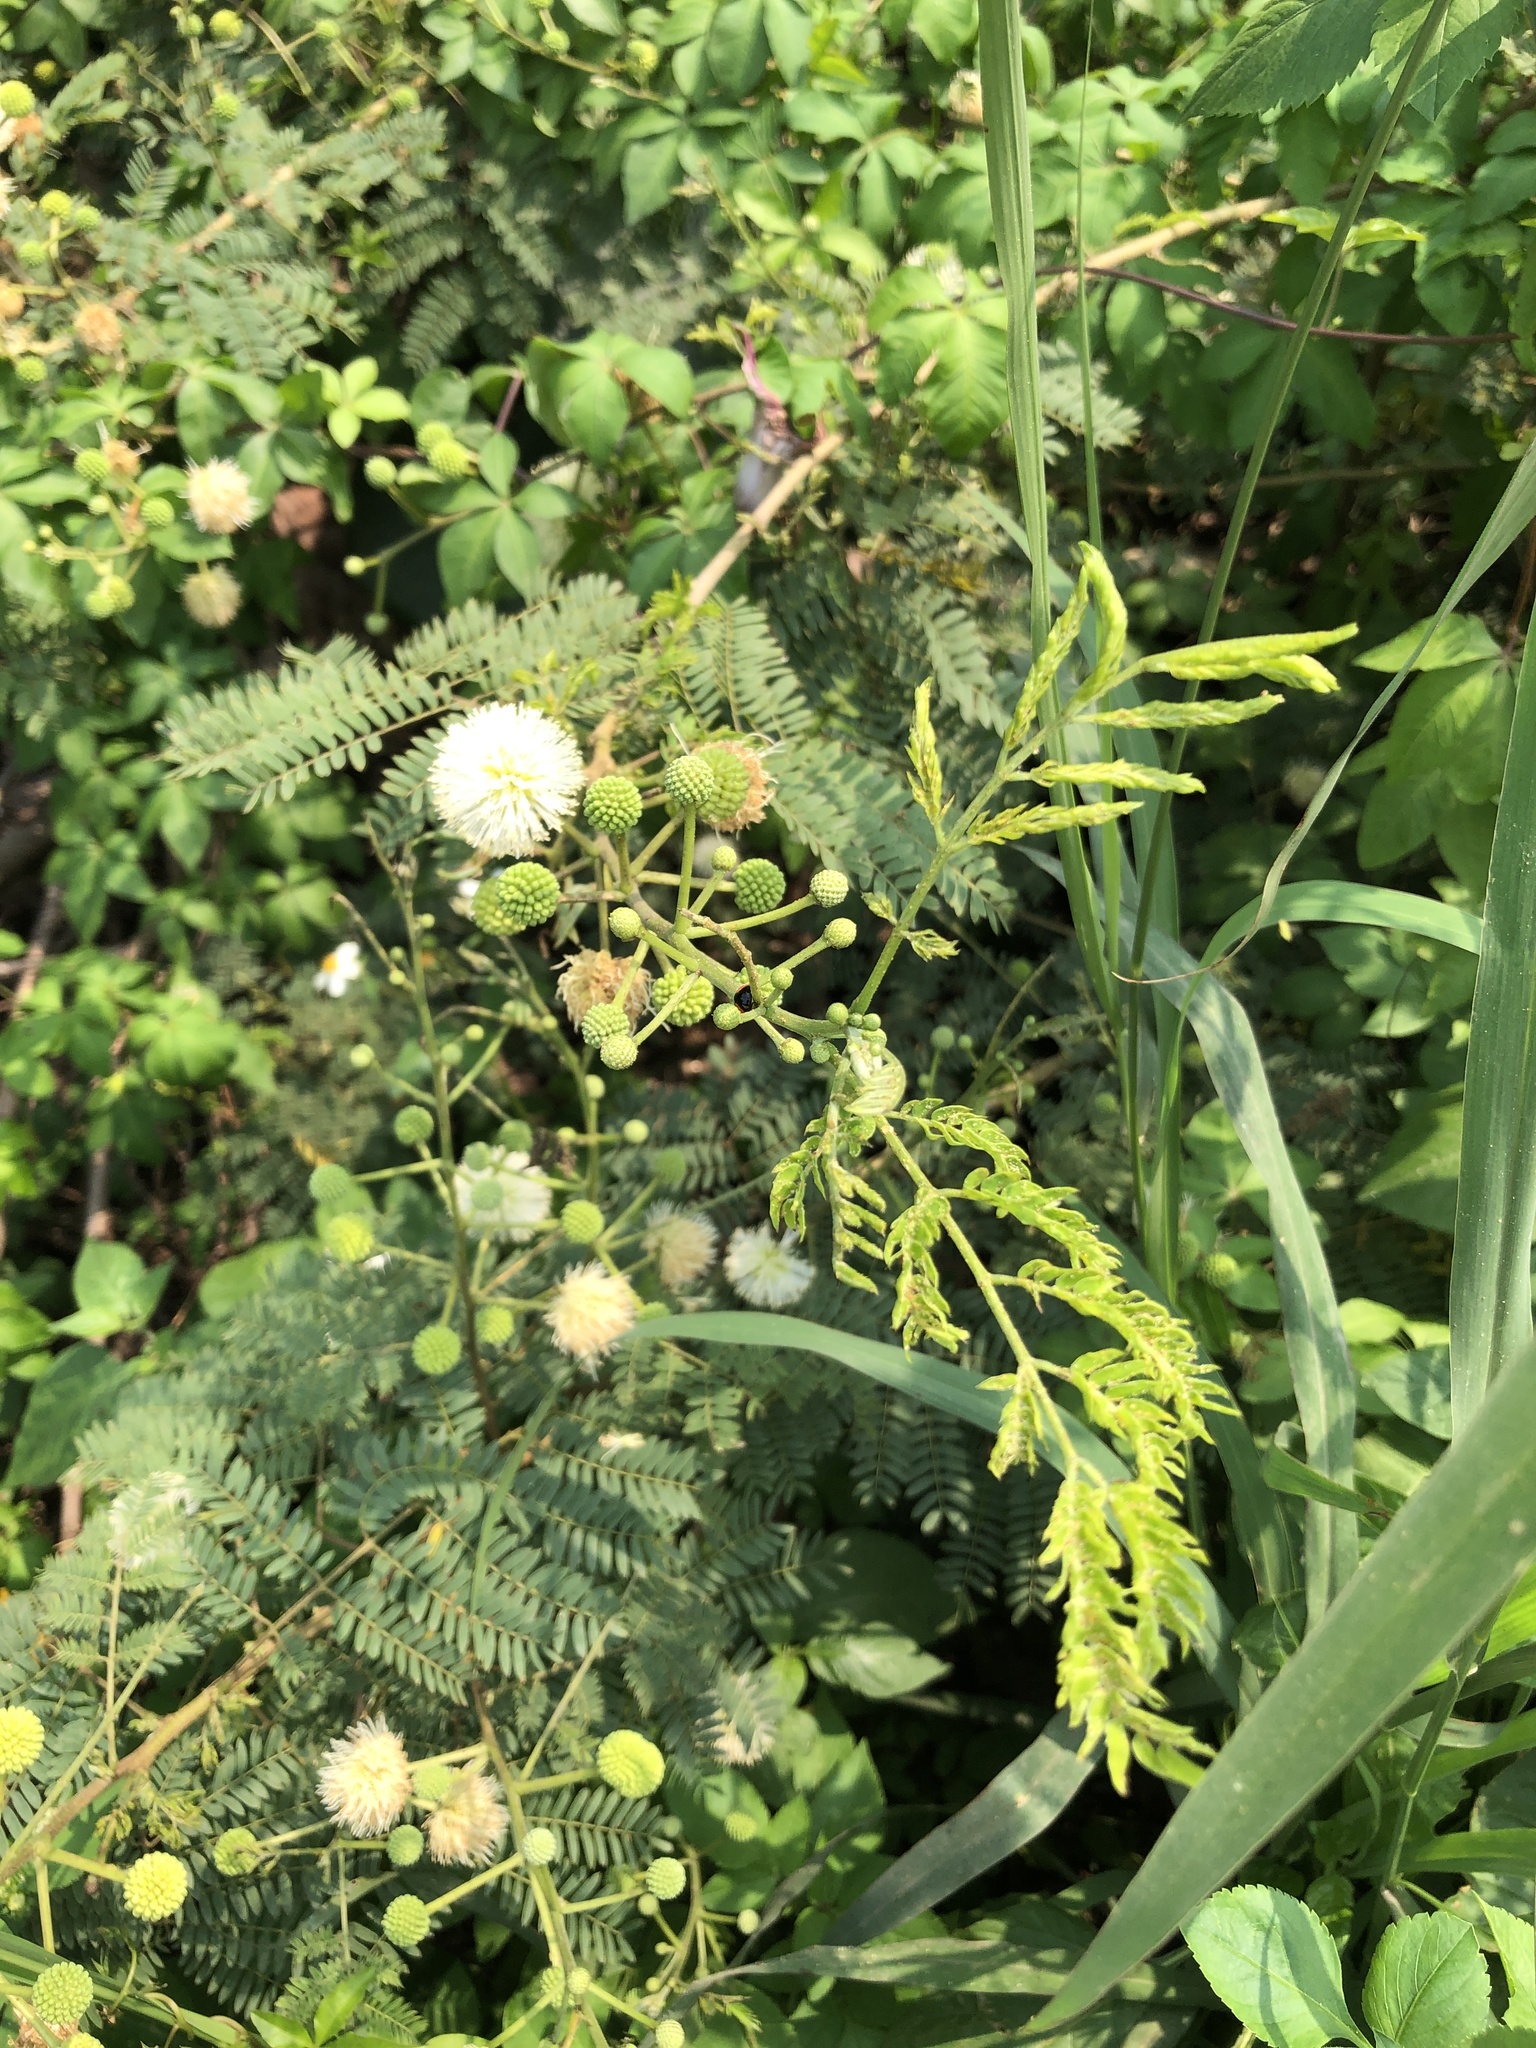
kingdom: Plantae
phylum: Tracheophyta
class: Magnoliopsida
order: Fabales
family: Fabaceae
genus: Leucaena
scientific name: Leucaena leucocephala
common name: White leadtree
